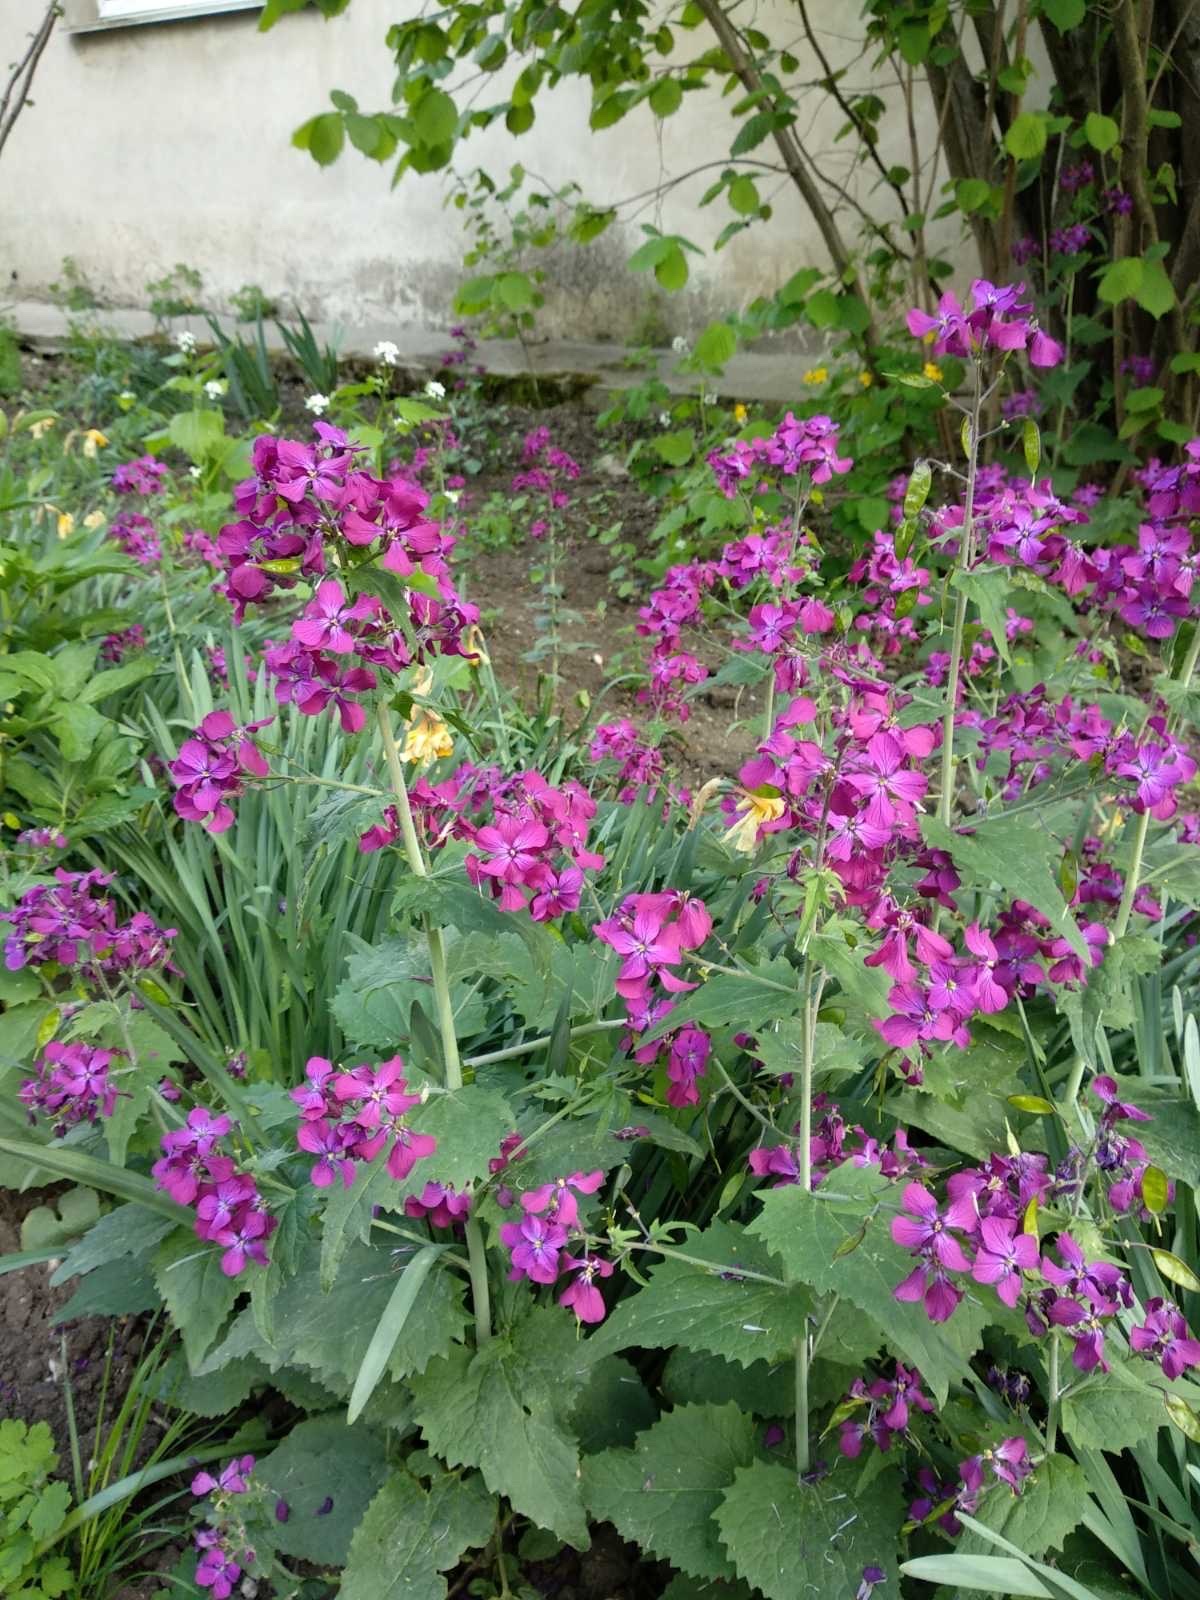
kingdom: Plantae
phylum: Tracheophyta
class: Magnoliopsida
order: Brassicales
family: Brassicaceae
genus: Lunaria
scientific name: Lunaria annua
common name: Honesty
